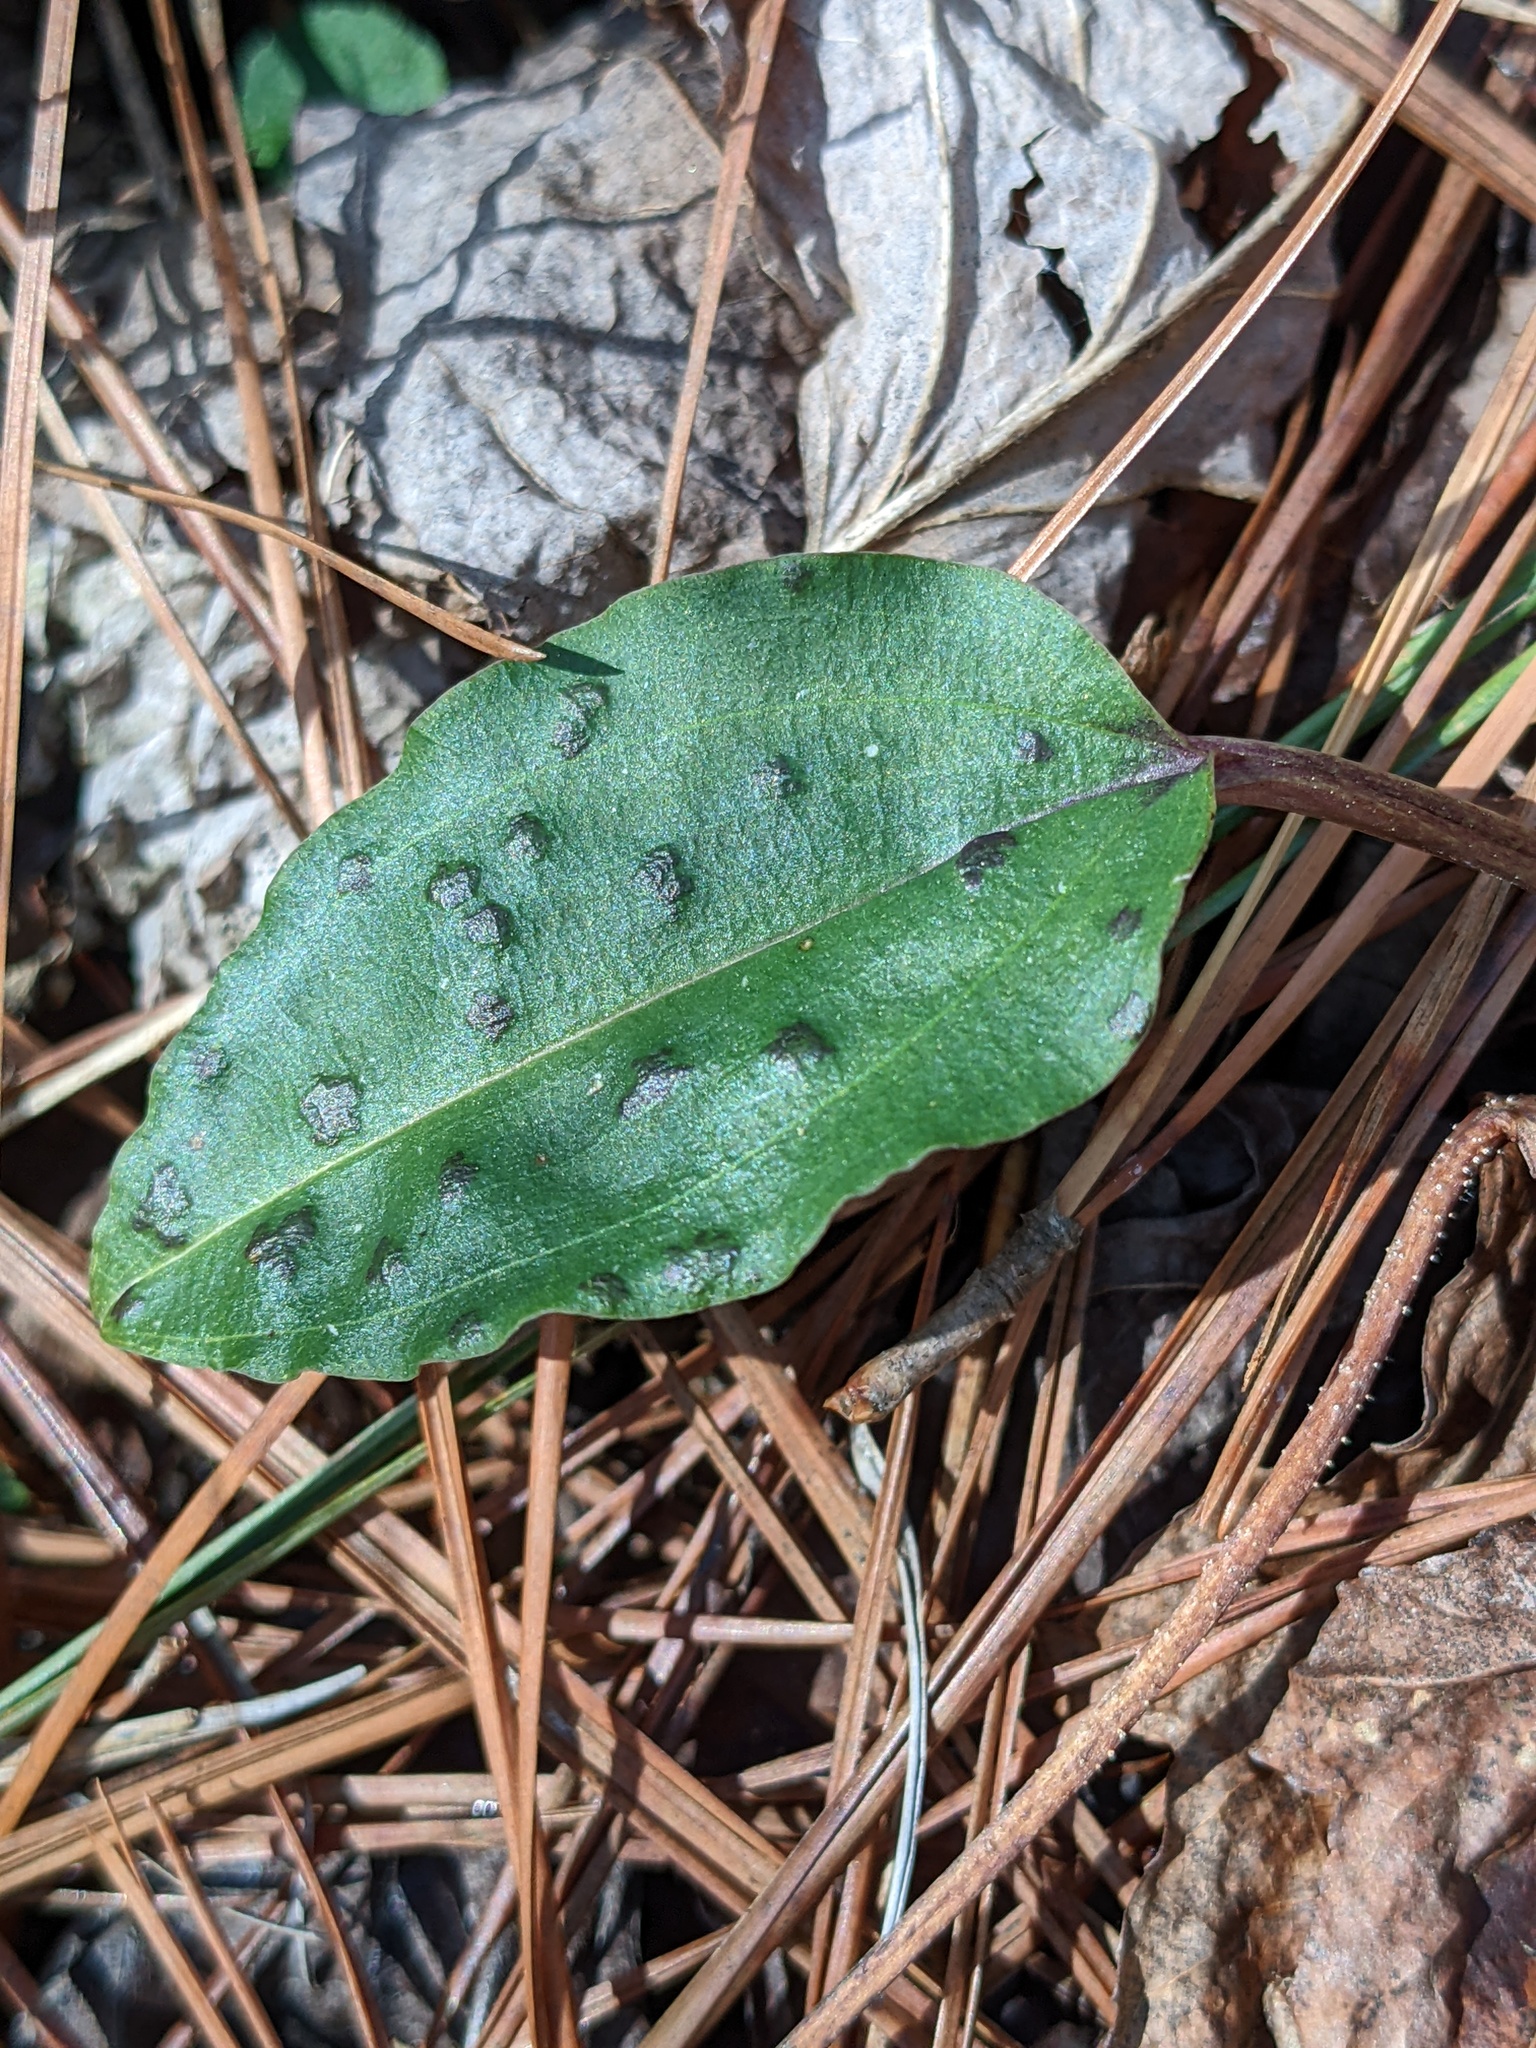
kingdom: Plantae
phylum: Tracheophyta
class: Liliopsida
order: Asparagales
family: Orchidaceae
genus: Tipularia
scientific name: Tipularia discolor
